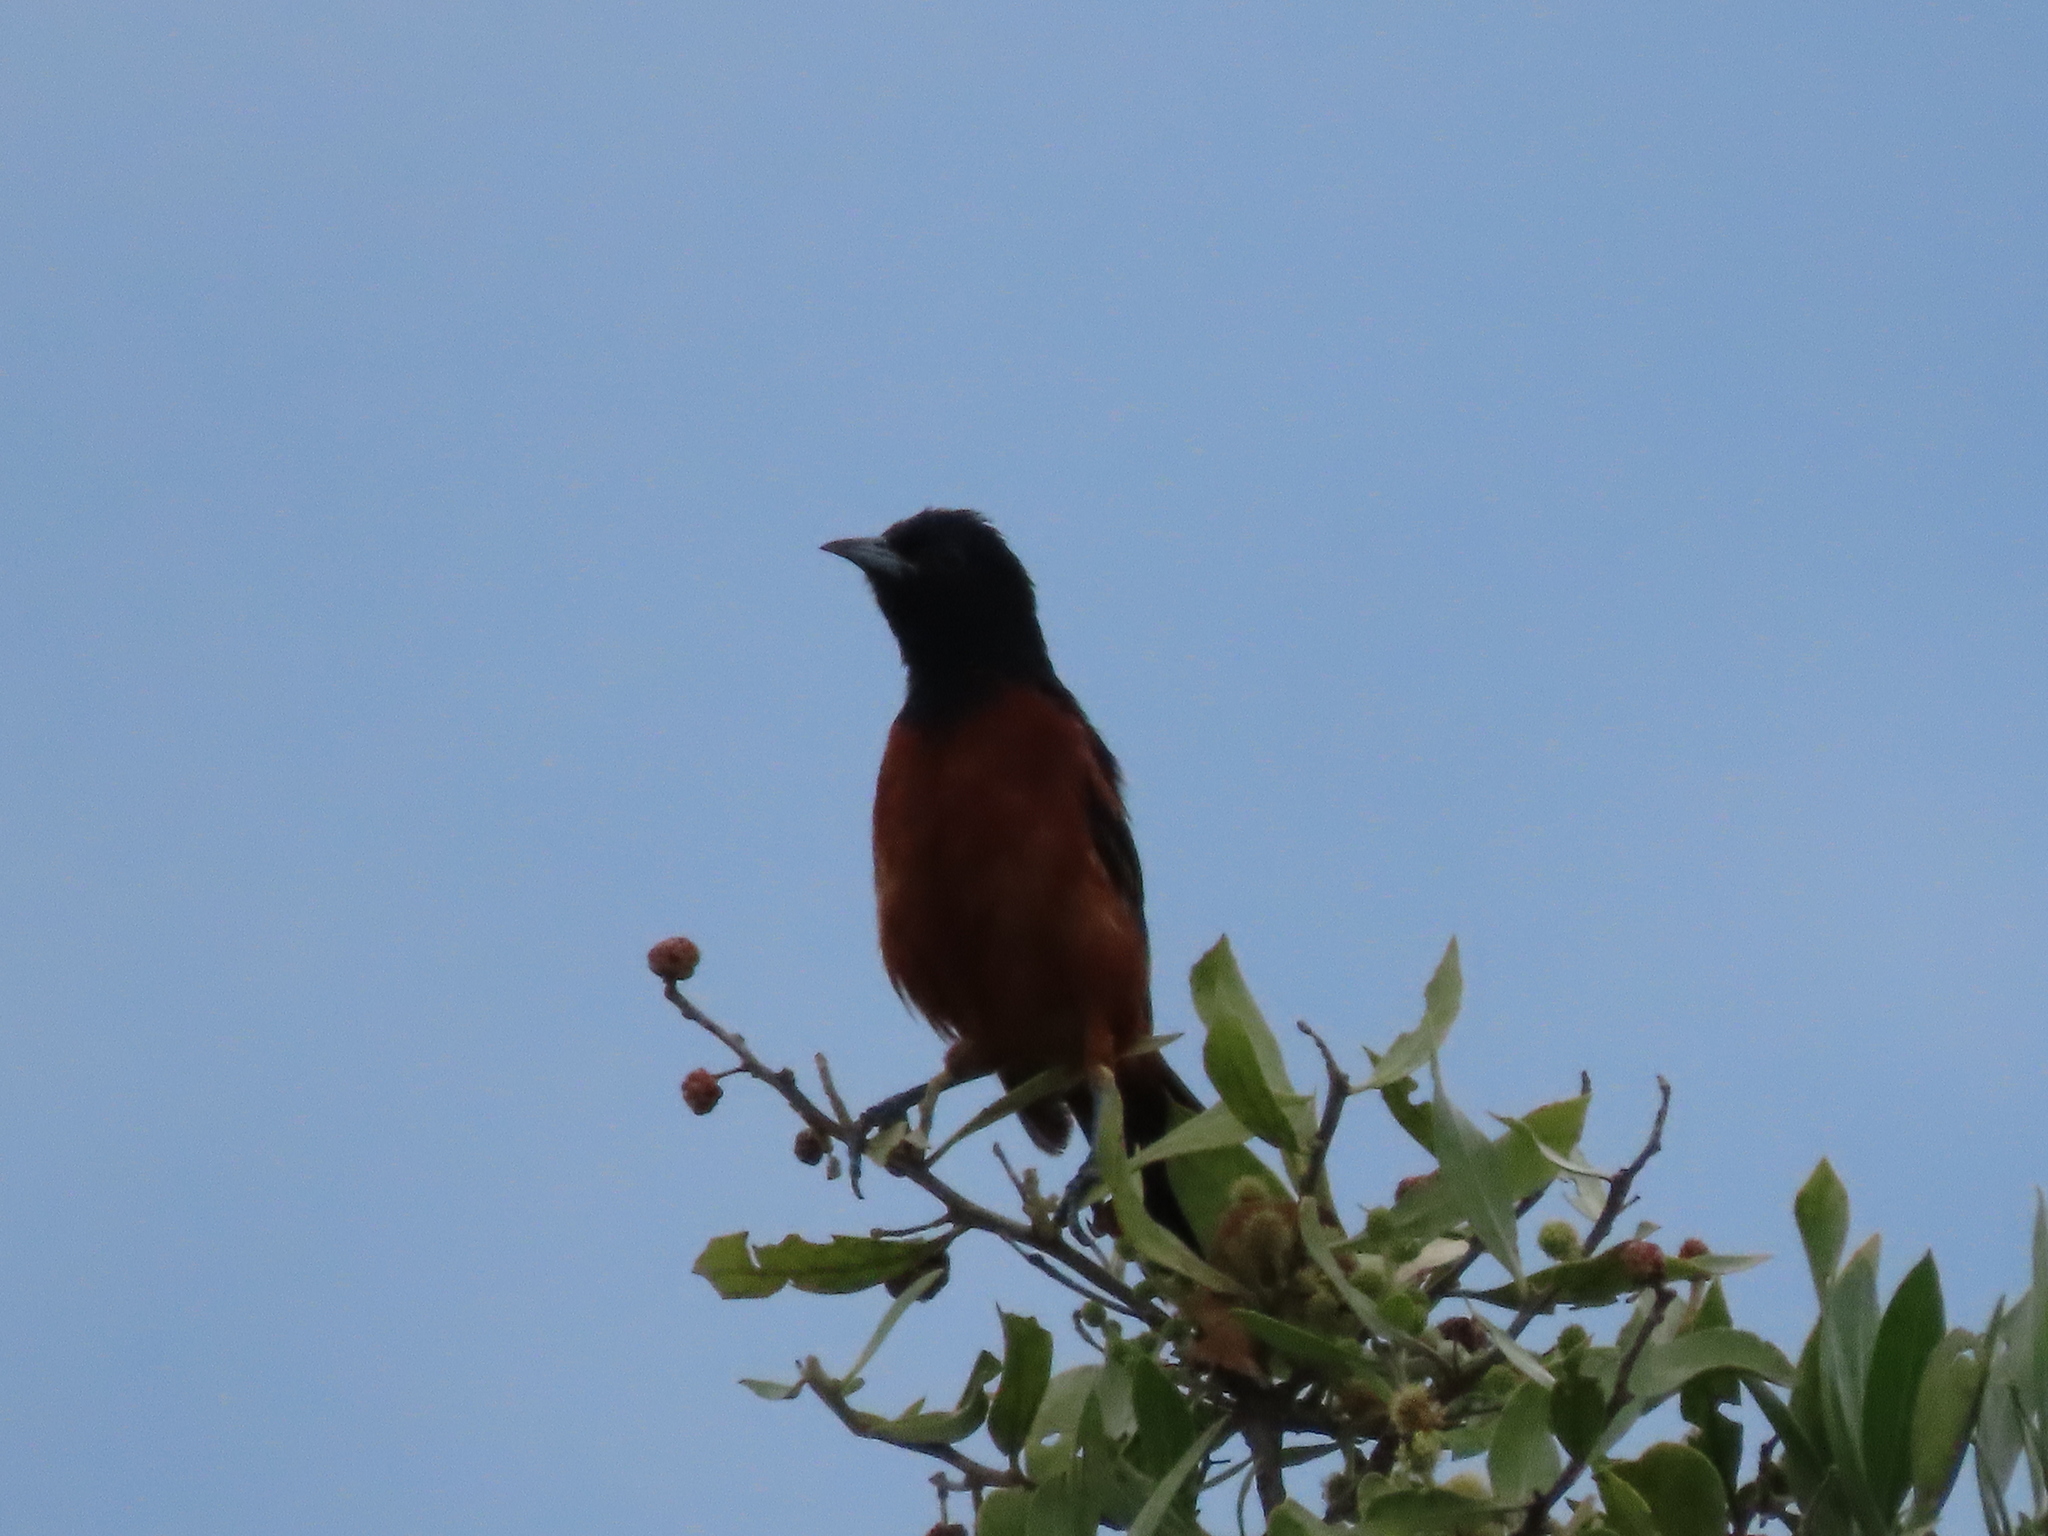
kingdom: Animalia
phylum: Chordata
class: Aves
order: Passeriformes
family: Icteridae
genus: Icterus
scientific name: Icterus spurius
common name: Orchard oriole
